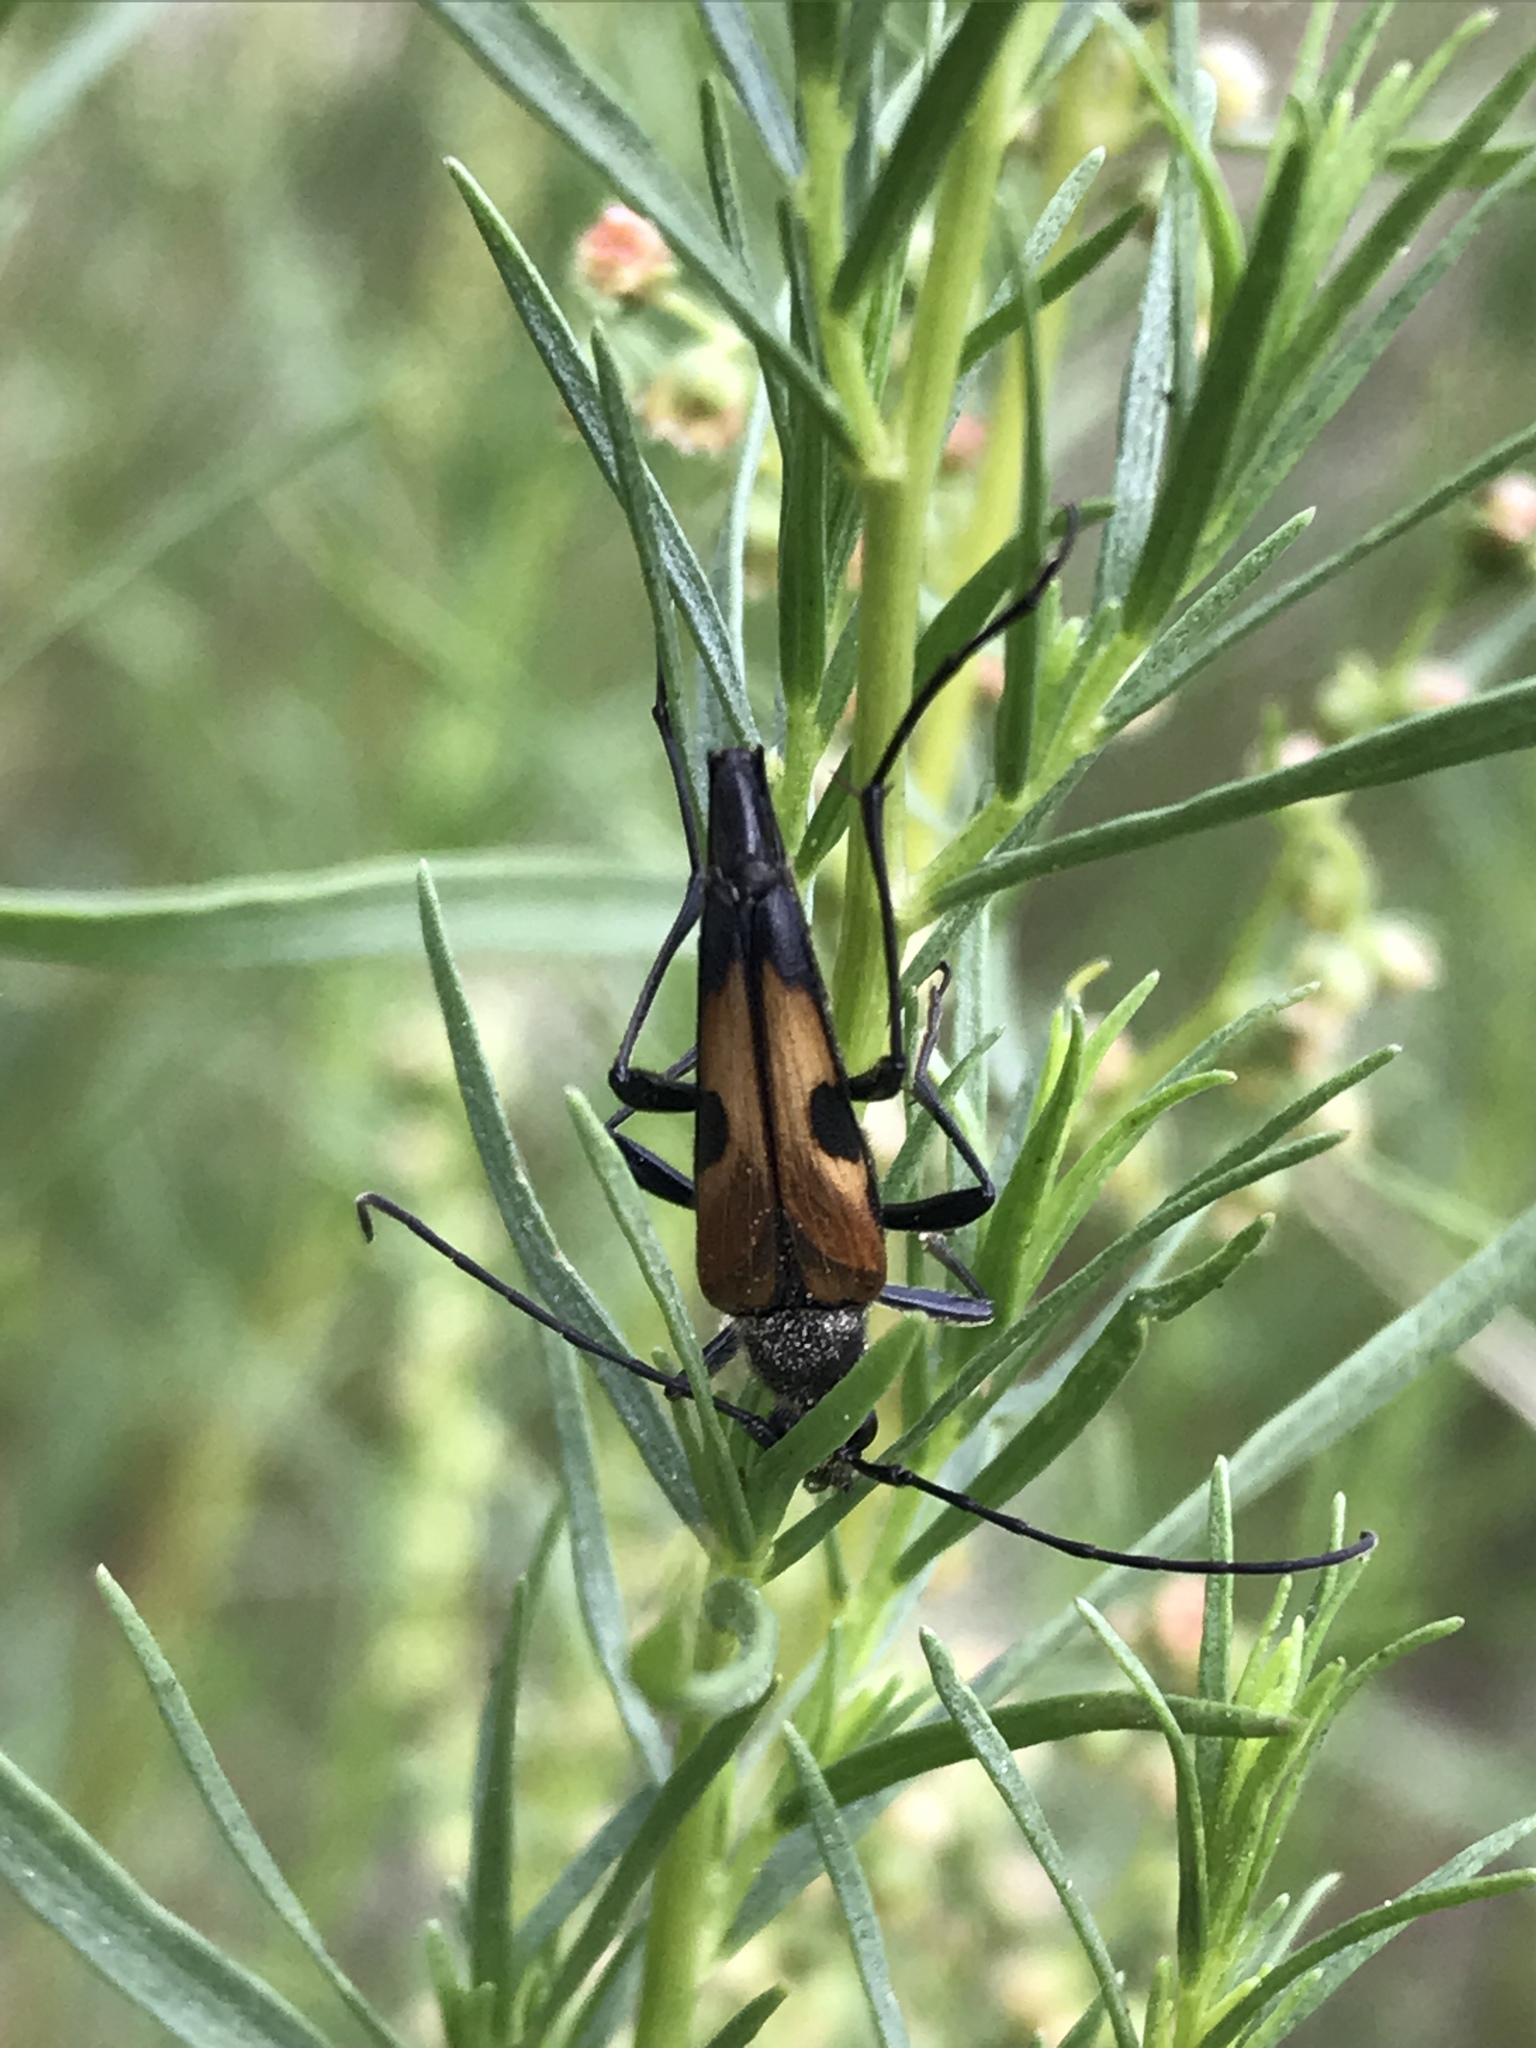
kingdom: Animalia
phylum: Arthropoda
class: Insecta
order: Coleoptera
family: Cerambycidae
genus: Etorofus
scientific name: Etorofus
